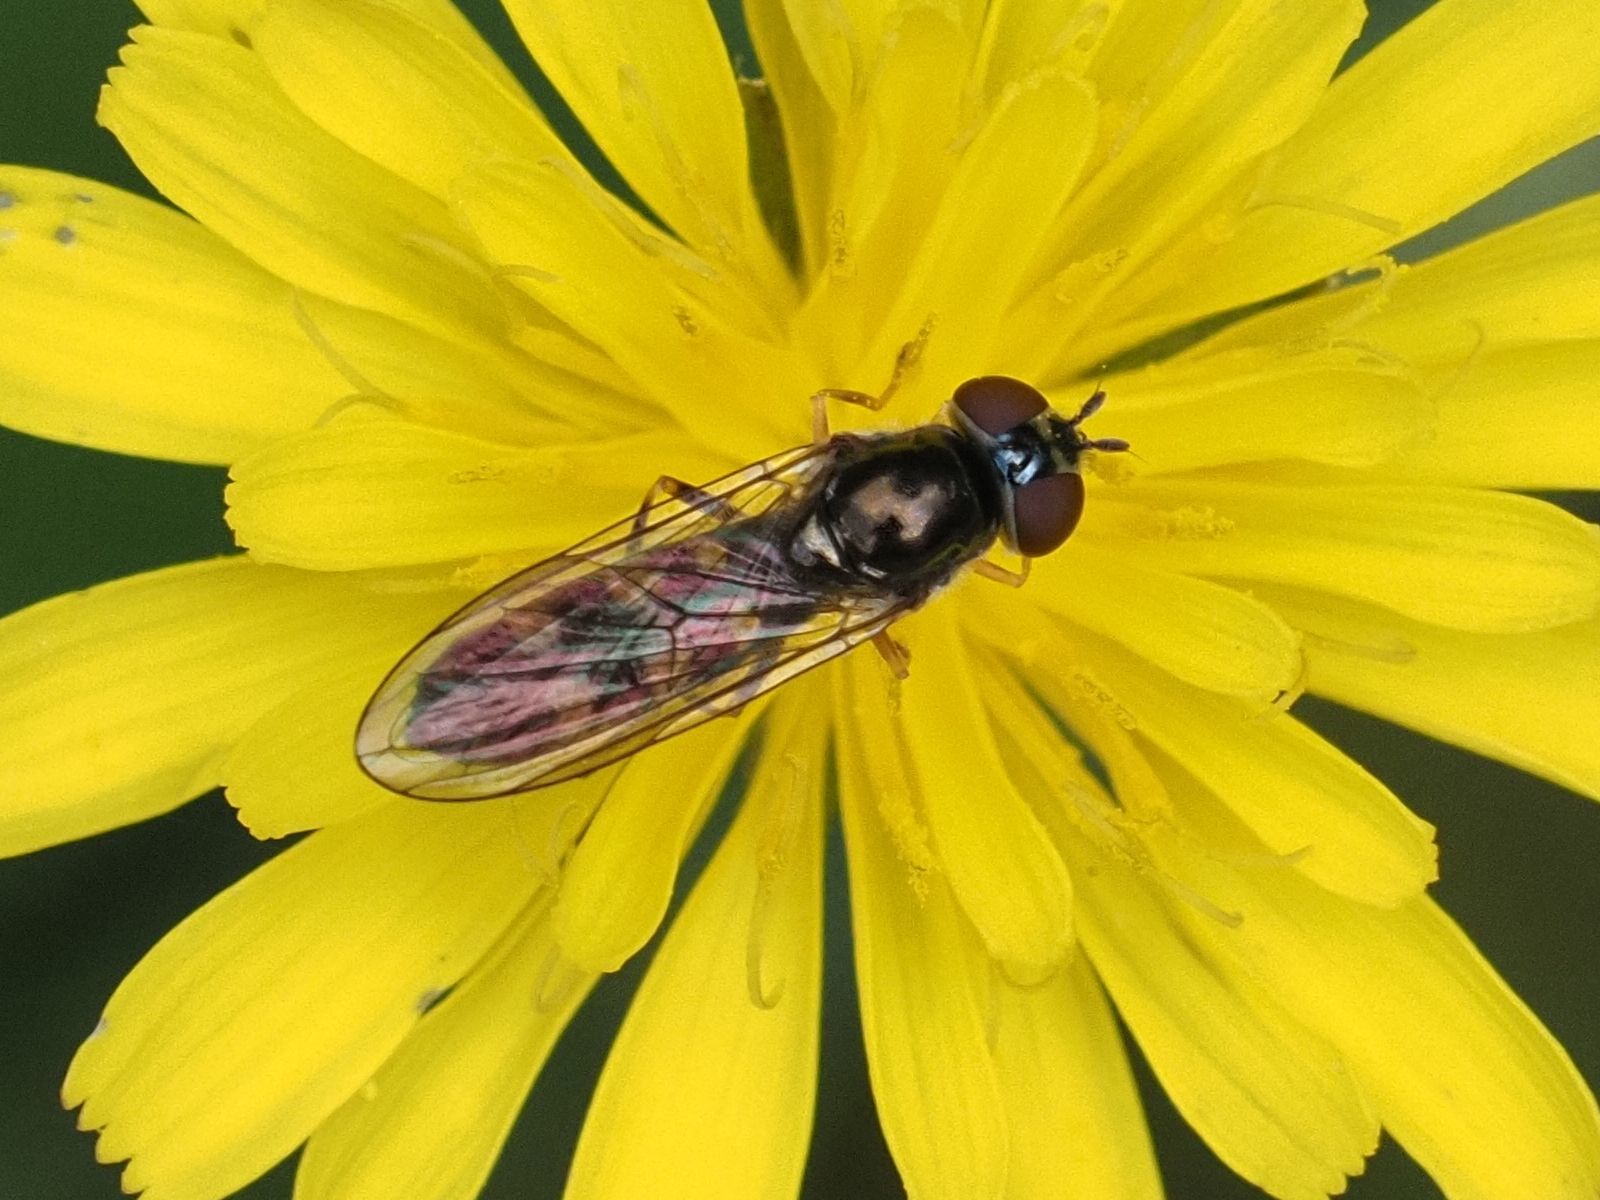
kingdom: Animalia
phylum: Arthropoda
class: Insecta
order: Diptera
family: Syrphidae
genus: Melanostoma
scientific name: Melanostoma scalare
